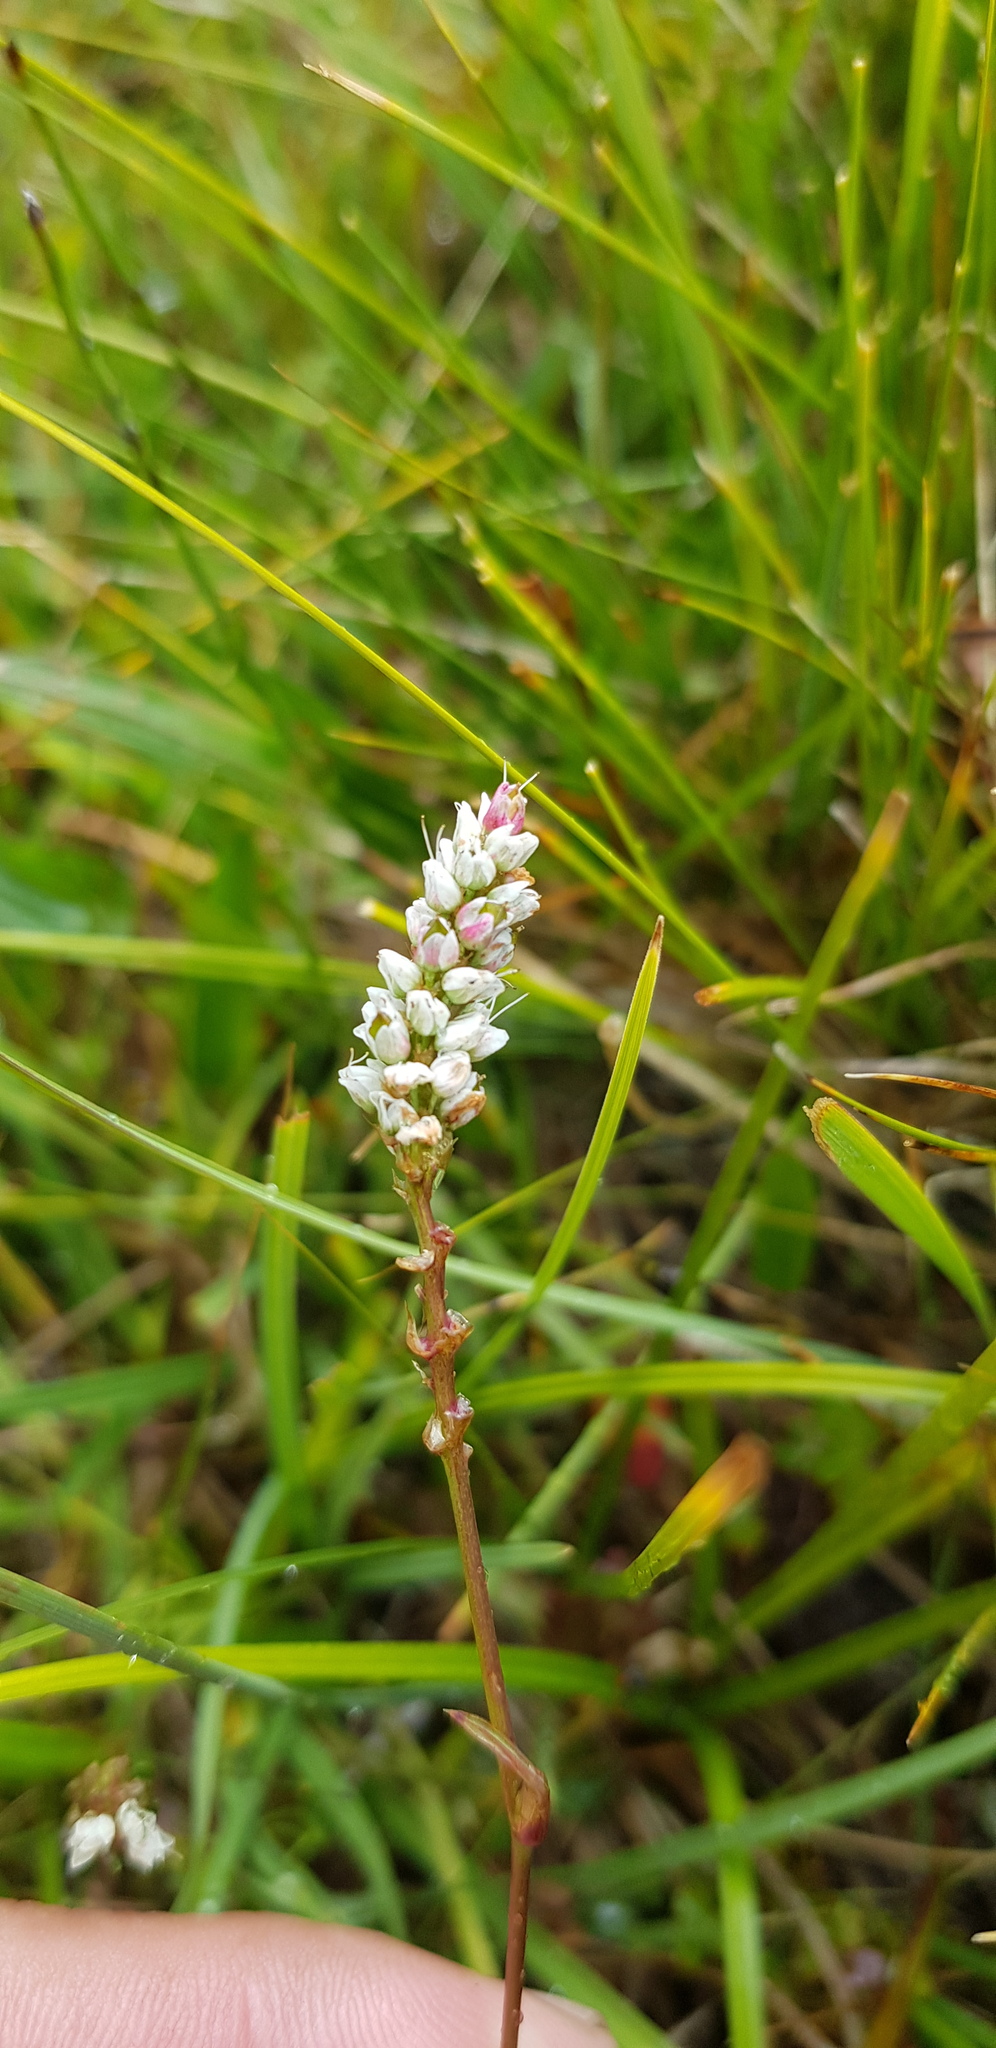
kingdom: Plantae
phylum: Tracheophyta
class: Magnoliopsida
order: Caryophyllales
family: Polygonaceae
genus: Bistorta
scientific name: Bistorta vivipara
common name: Alpine bistort
